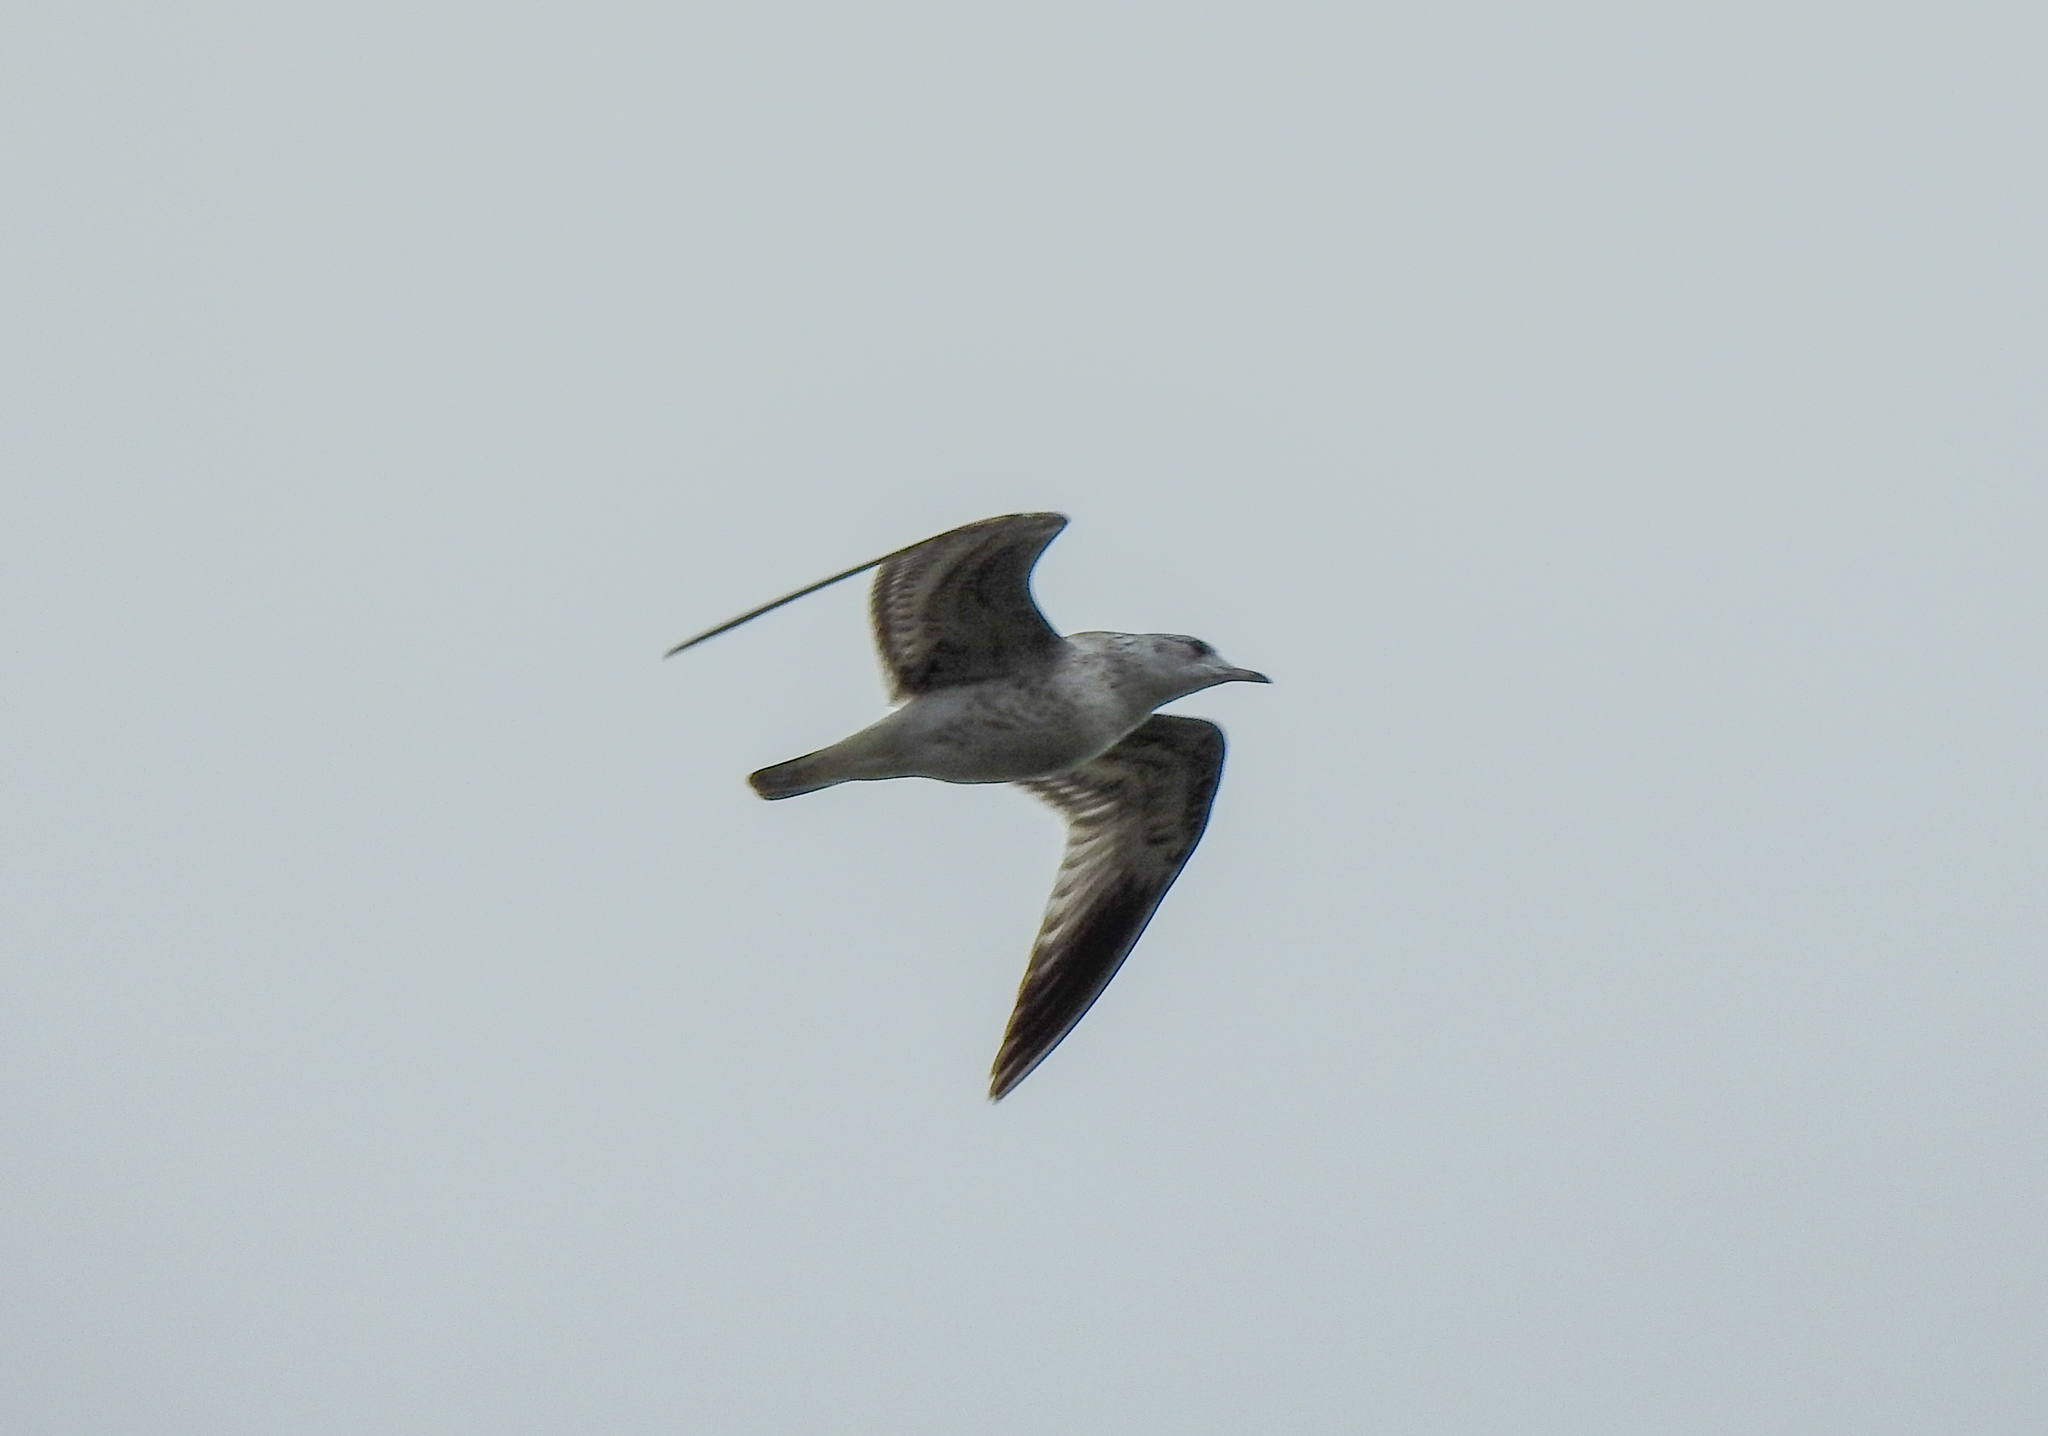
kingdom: Animalia
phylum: Chordata
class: Aves
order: Charadriiformes
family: Laridae
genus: Larus
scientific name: Larus canus
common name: Mew gull
